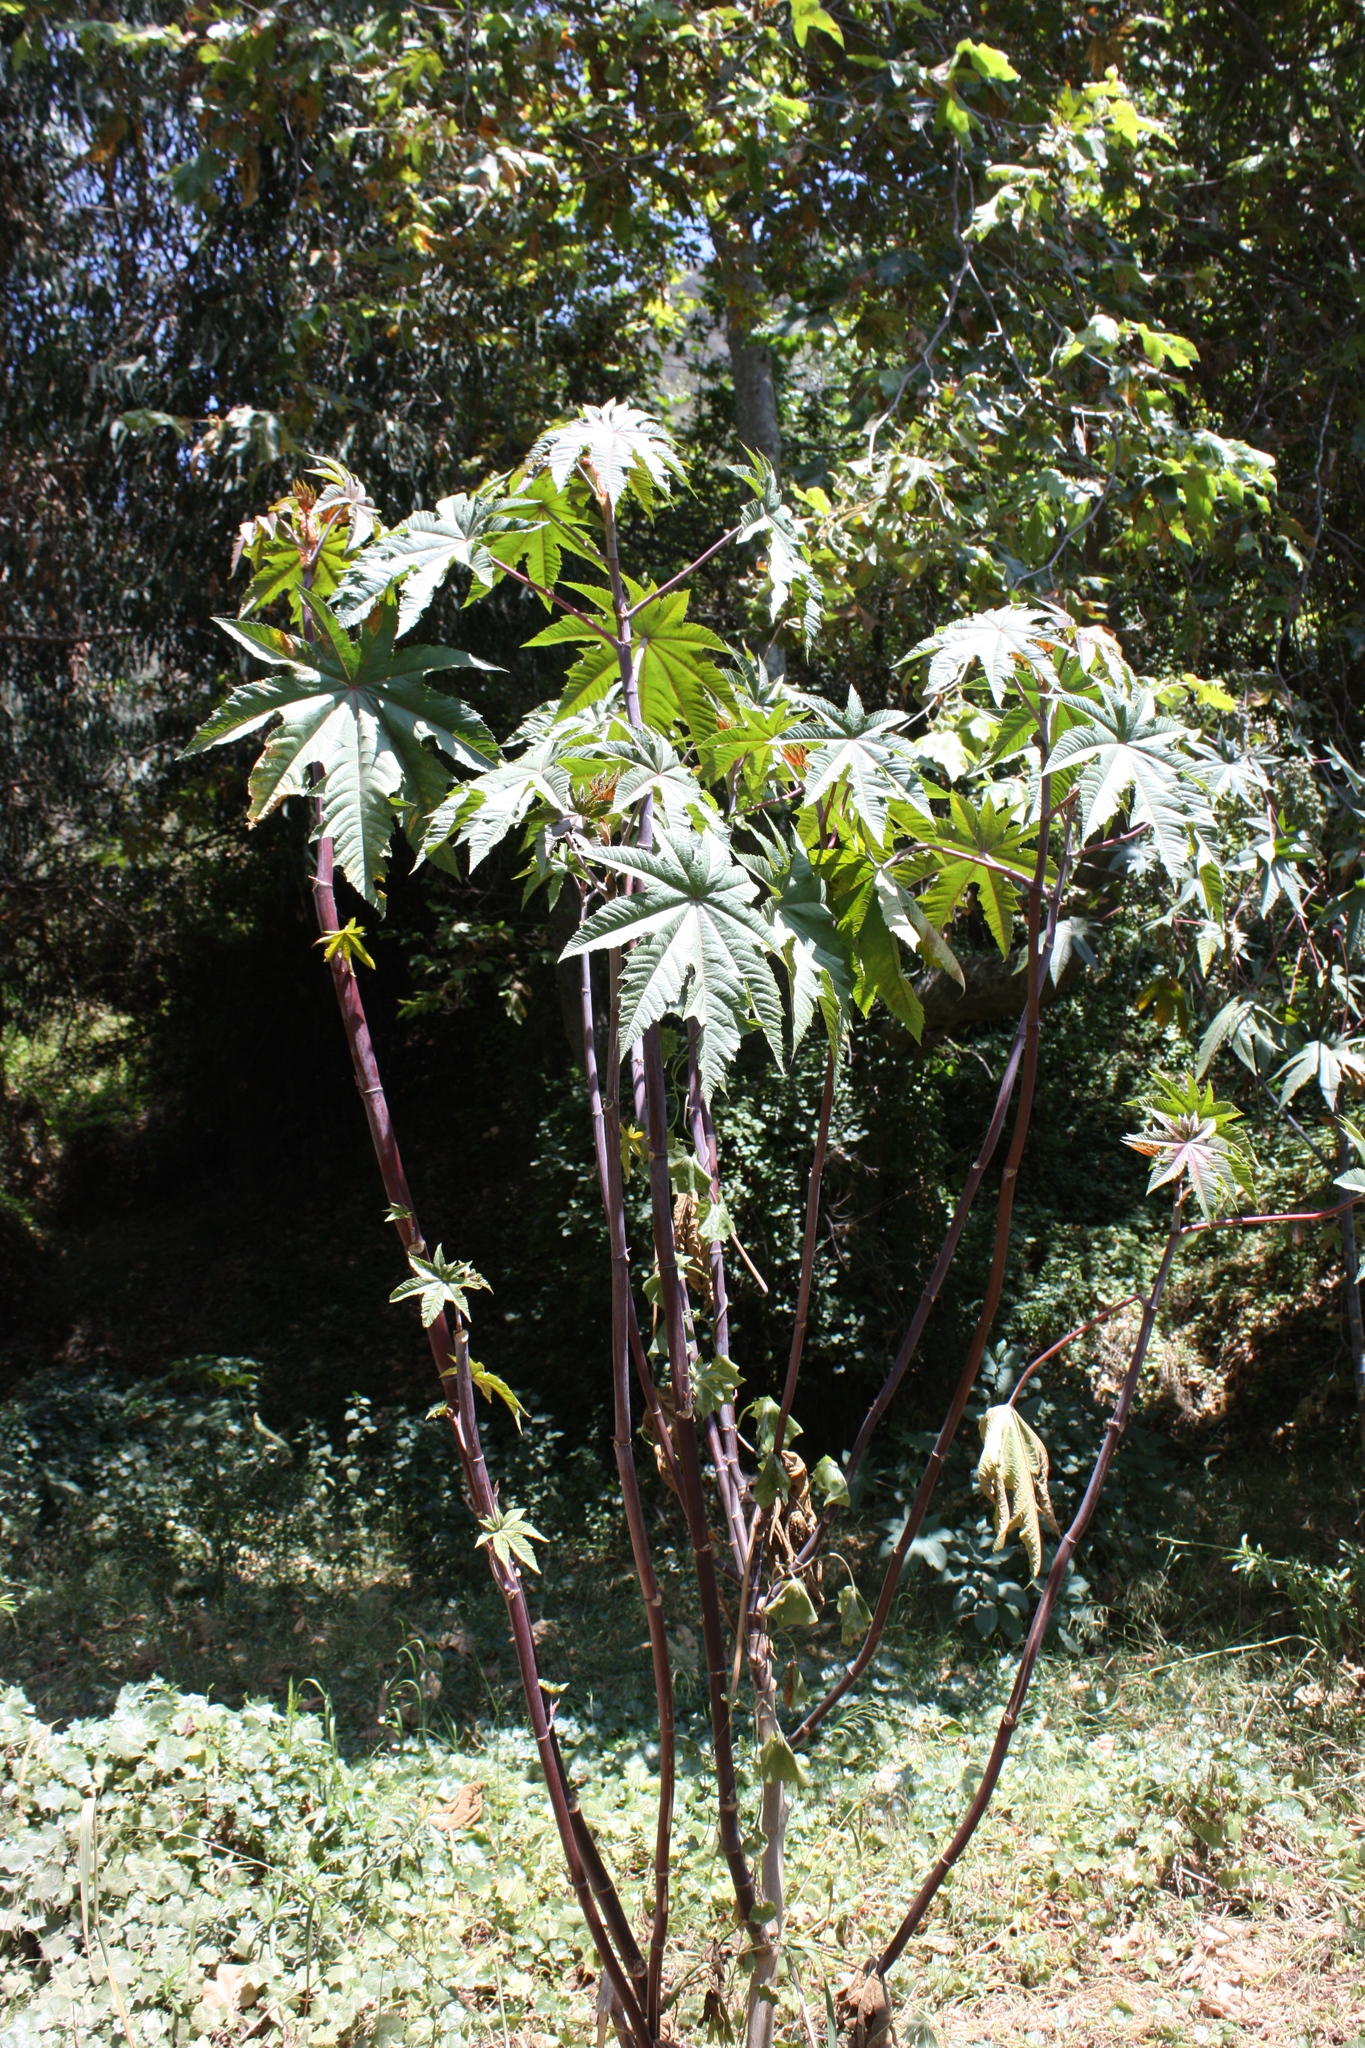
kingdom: Plantae
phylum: Tracheophyta
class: Magnoliopsida
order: Malpighiales
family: Euphorbiaceae
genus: Ricinus
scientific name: Ricinus communis
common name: Castor-oil-plant
